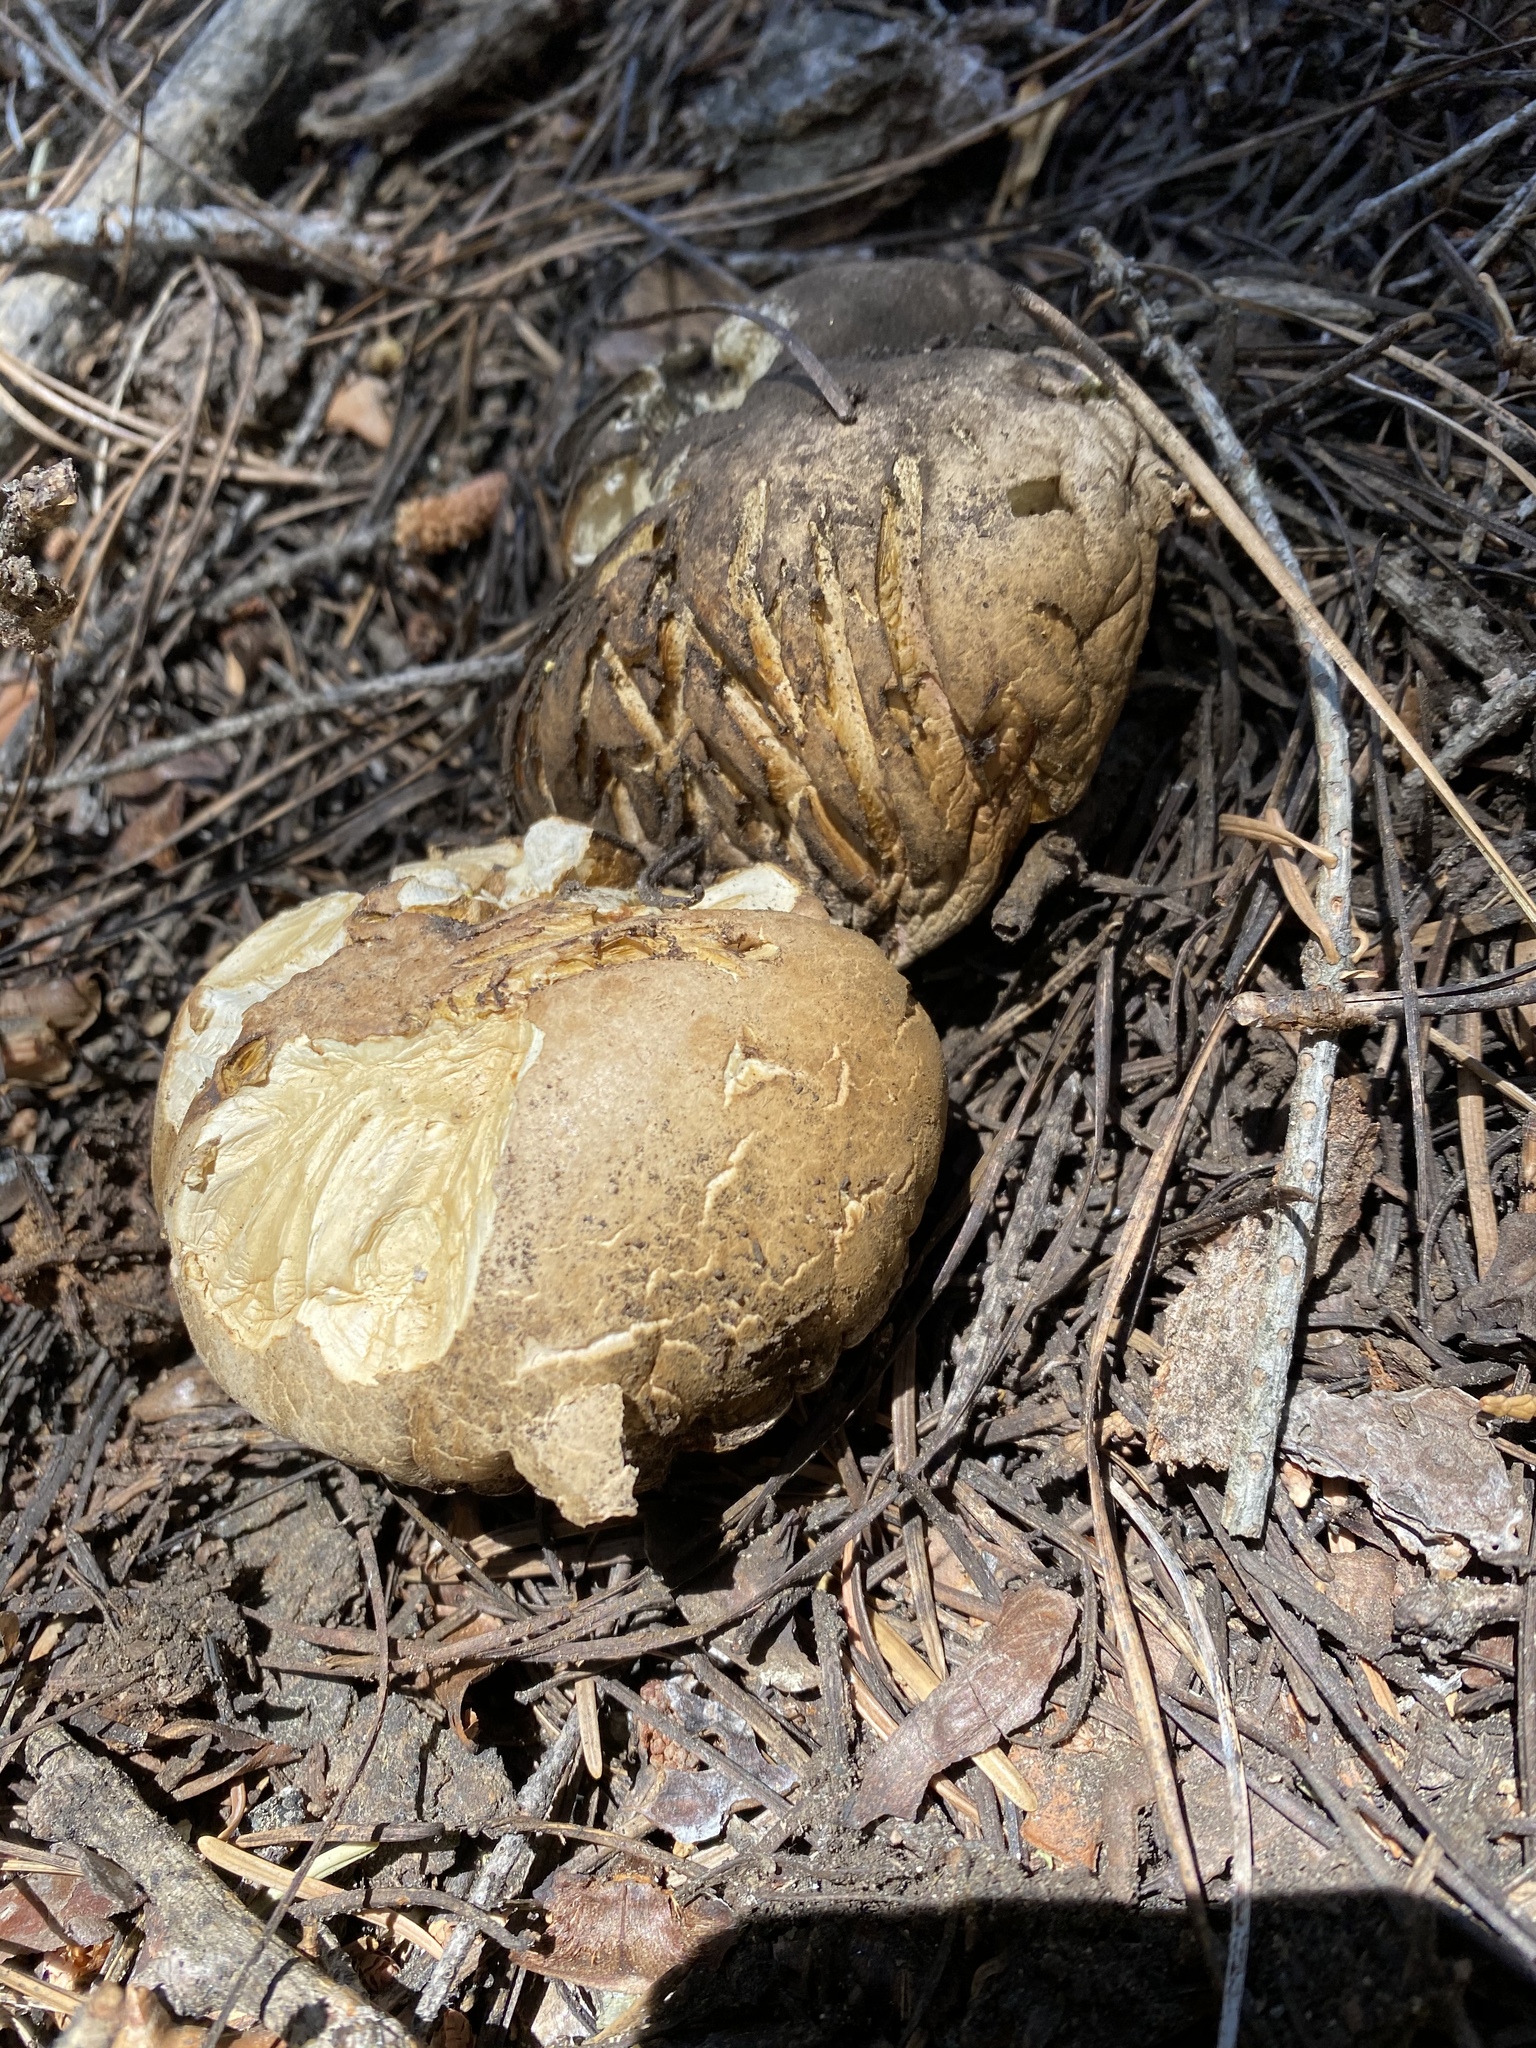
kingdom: Fungi
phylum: Basidiomycota
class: Agaricomycetes
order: Boletales
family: Boletaceae
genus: Caloboletus
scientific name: Caloboletus frustosus
